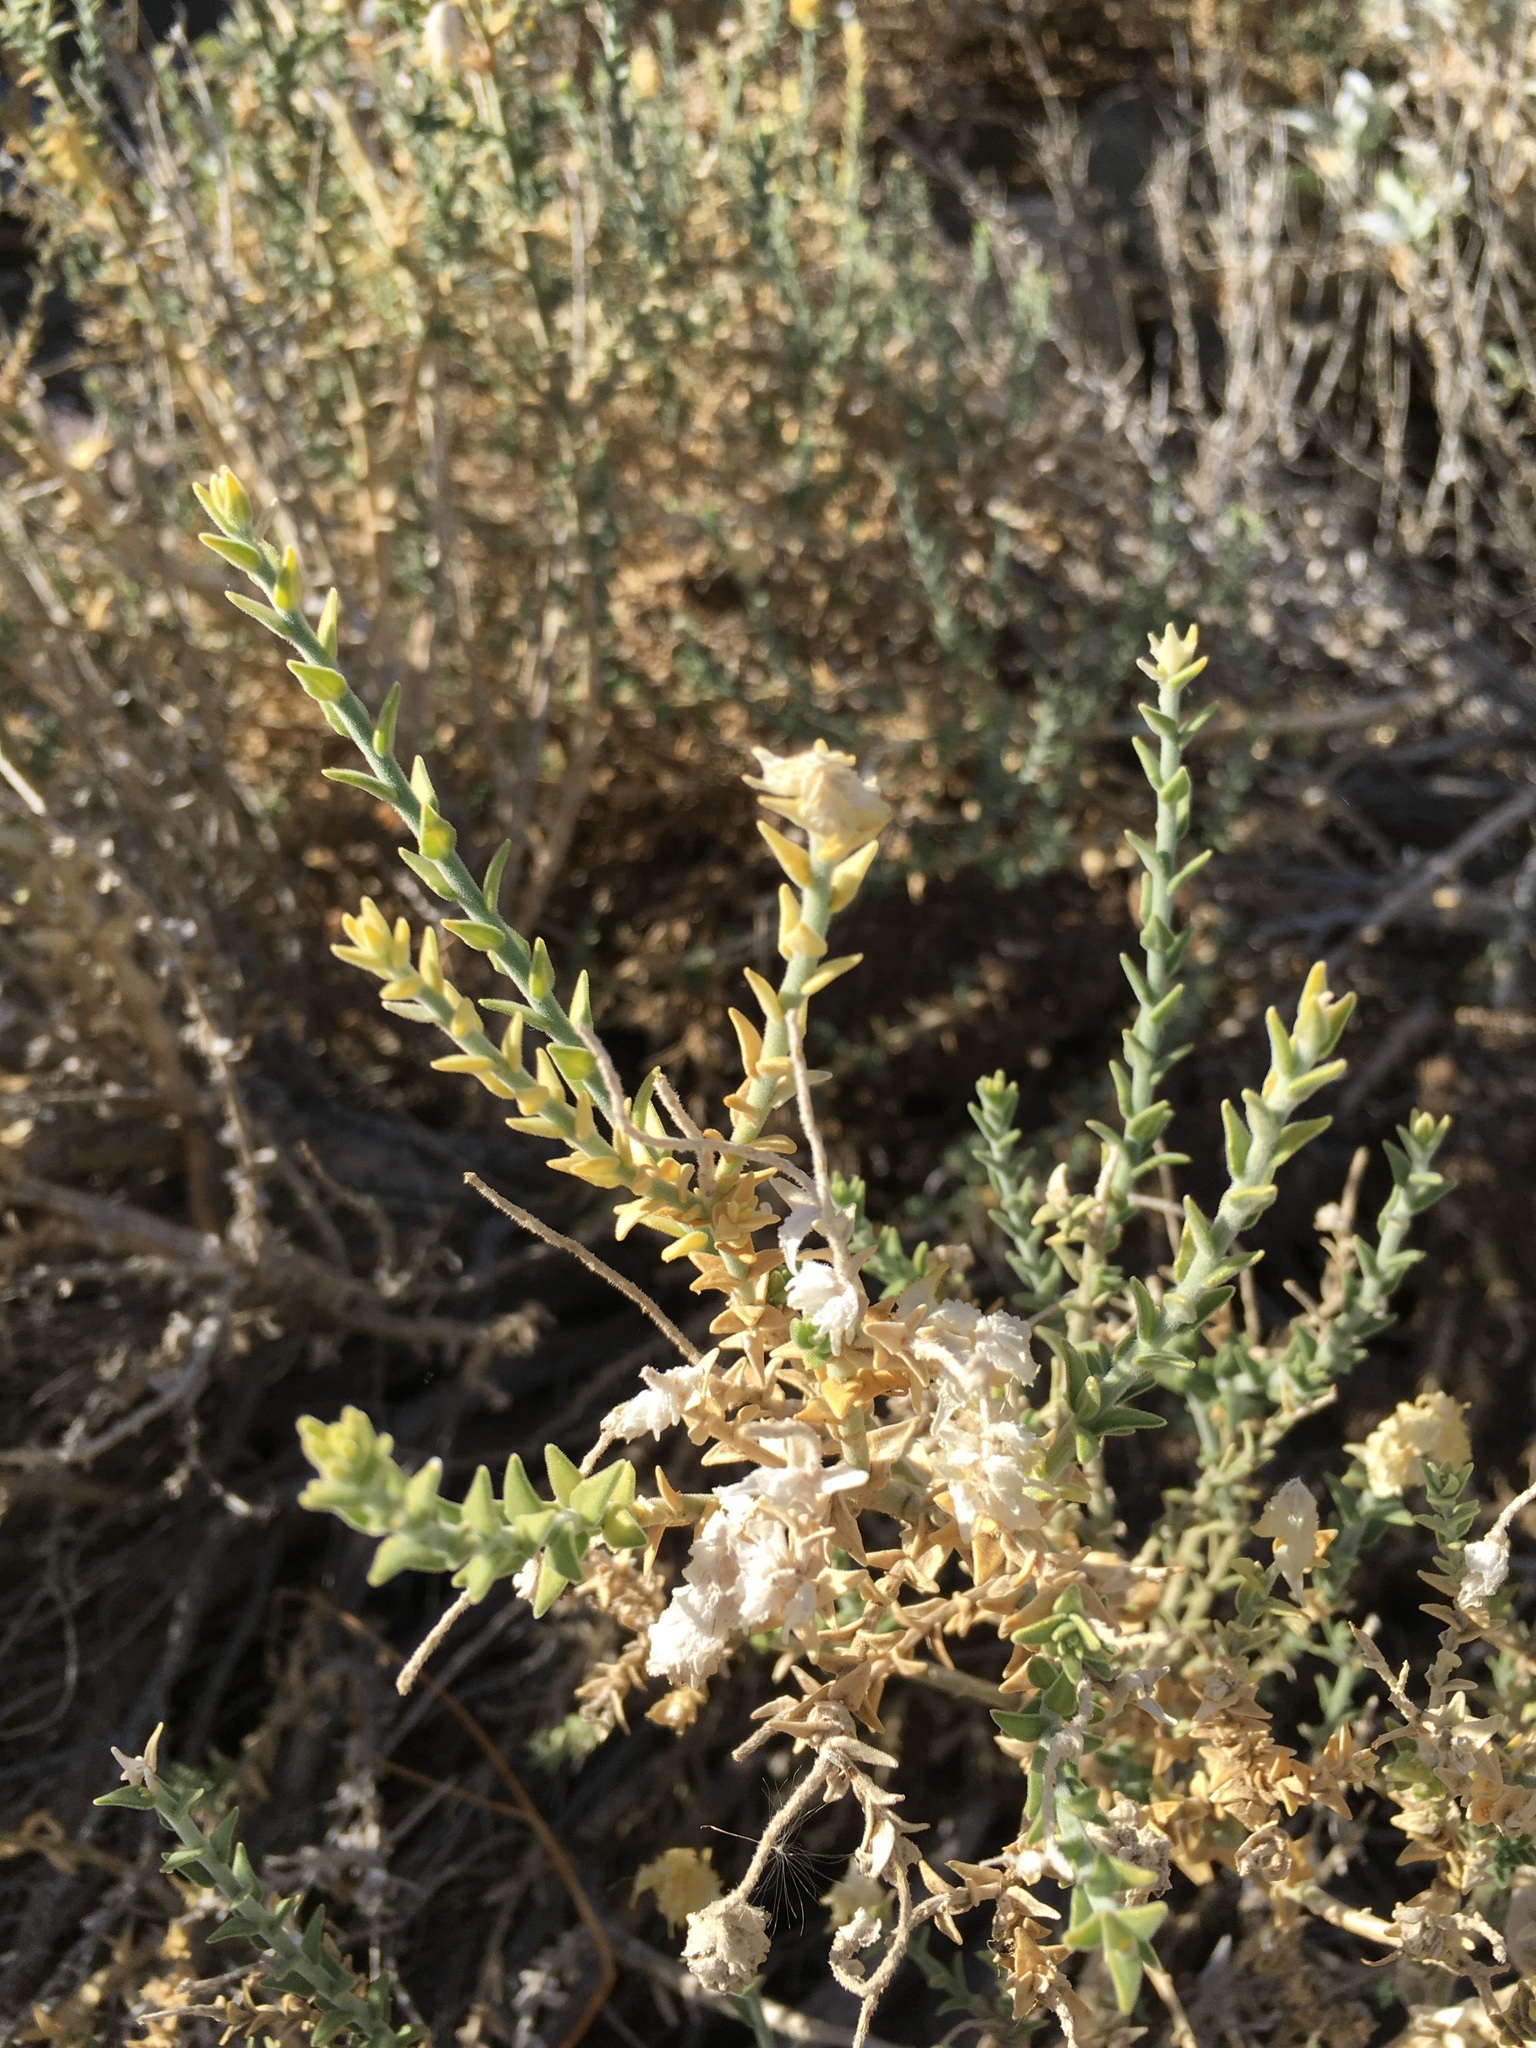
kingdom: Plantae
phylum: Tracheophyta
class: Magnoliopsida
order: Cornales
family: Loasaceae
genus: Petalonyx
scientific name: Petalonyx thurberi
